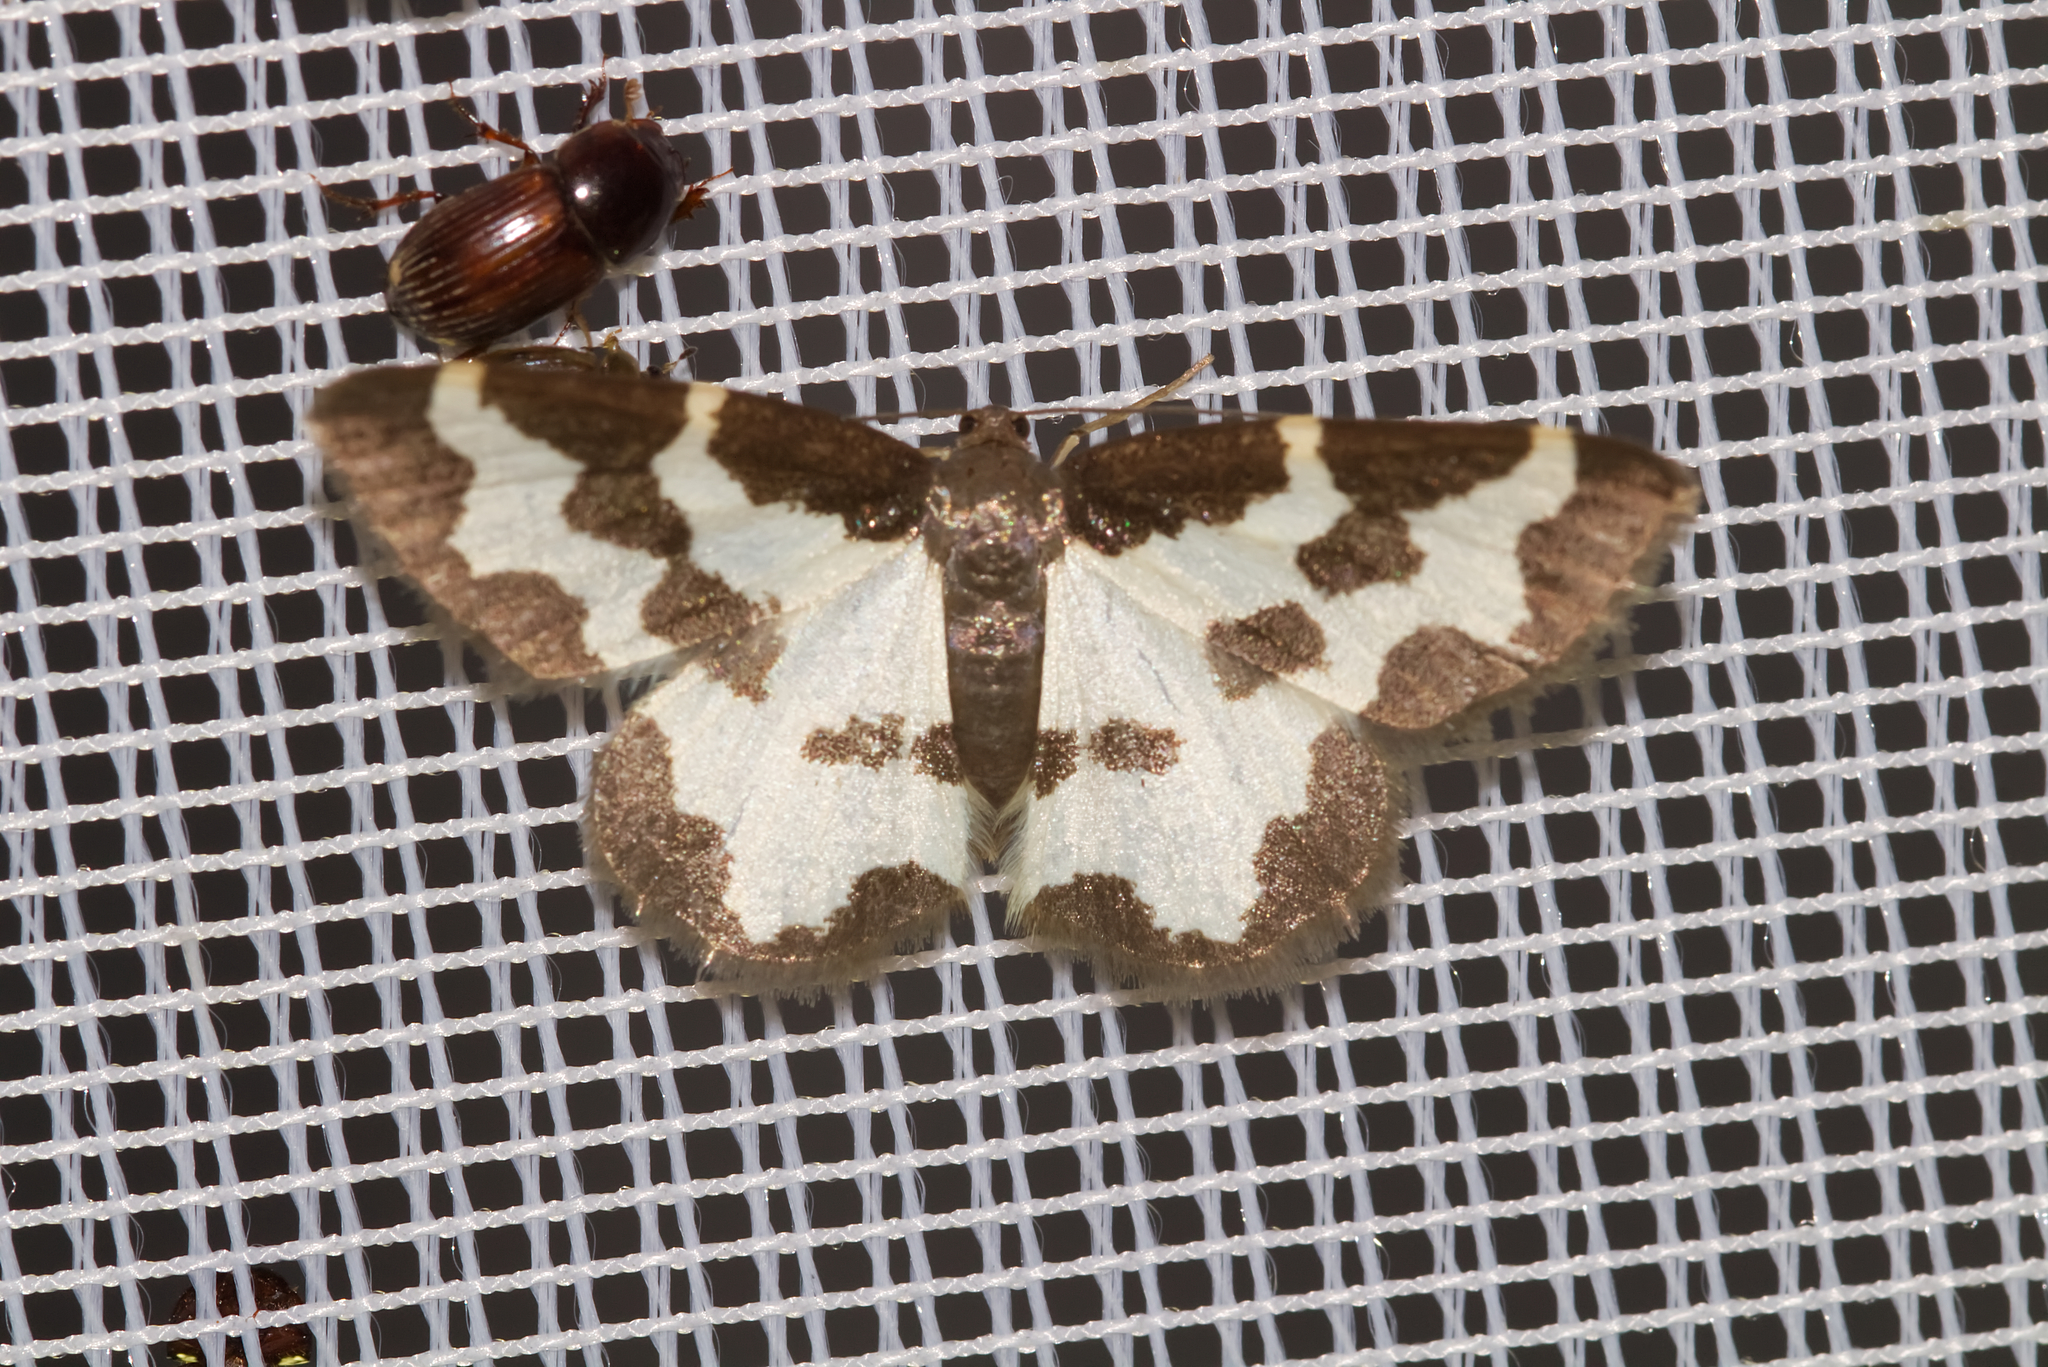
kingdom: Animalia
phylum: Arthropoda
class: Insecta
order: Lepidoptera
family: Geometridae
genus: Lomaspilis
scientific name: Lomaspilis marginata
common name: Clouded border
